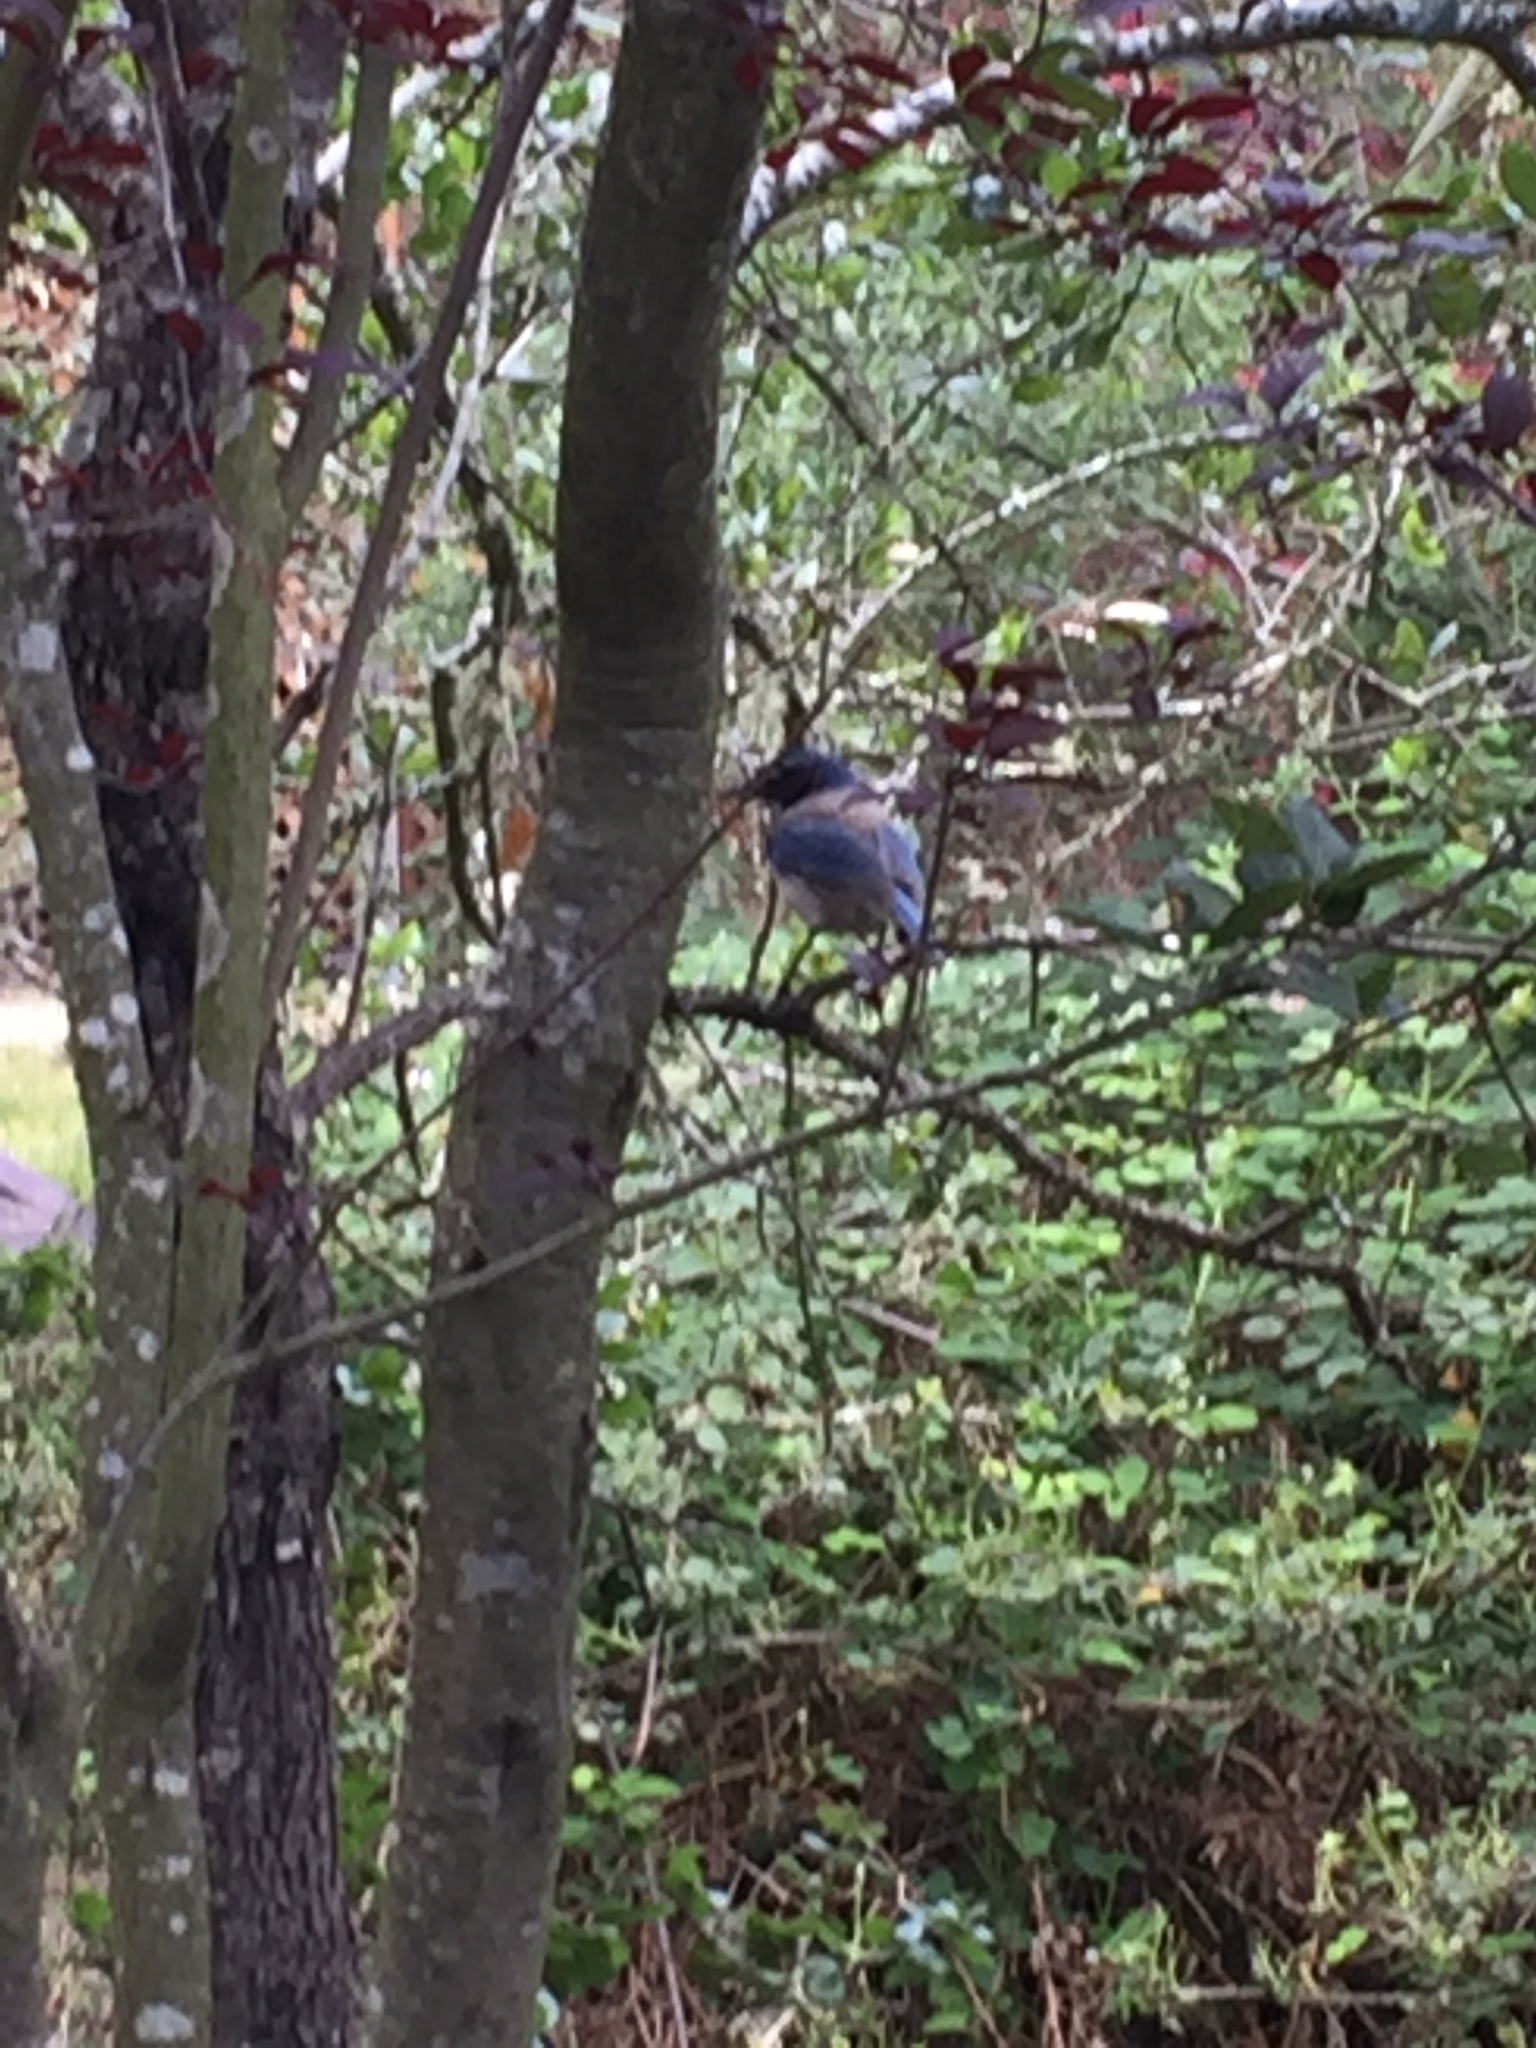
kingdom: Animalia
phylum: Chordata
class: Aves
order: Passeriformes
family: Corvidae
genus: Aphelocoma
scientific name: Aphelocoma californica
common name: California scrub-jay
